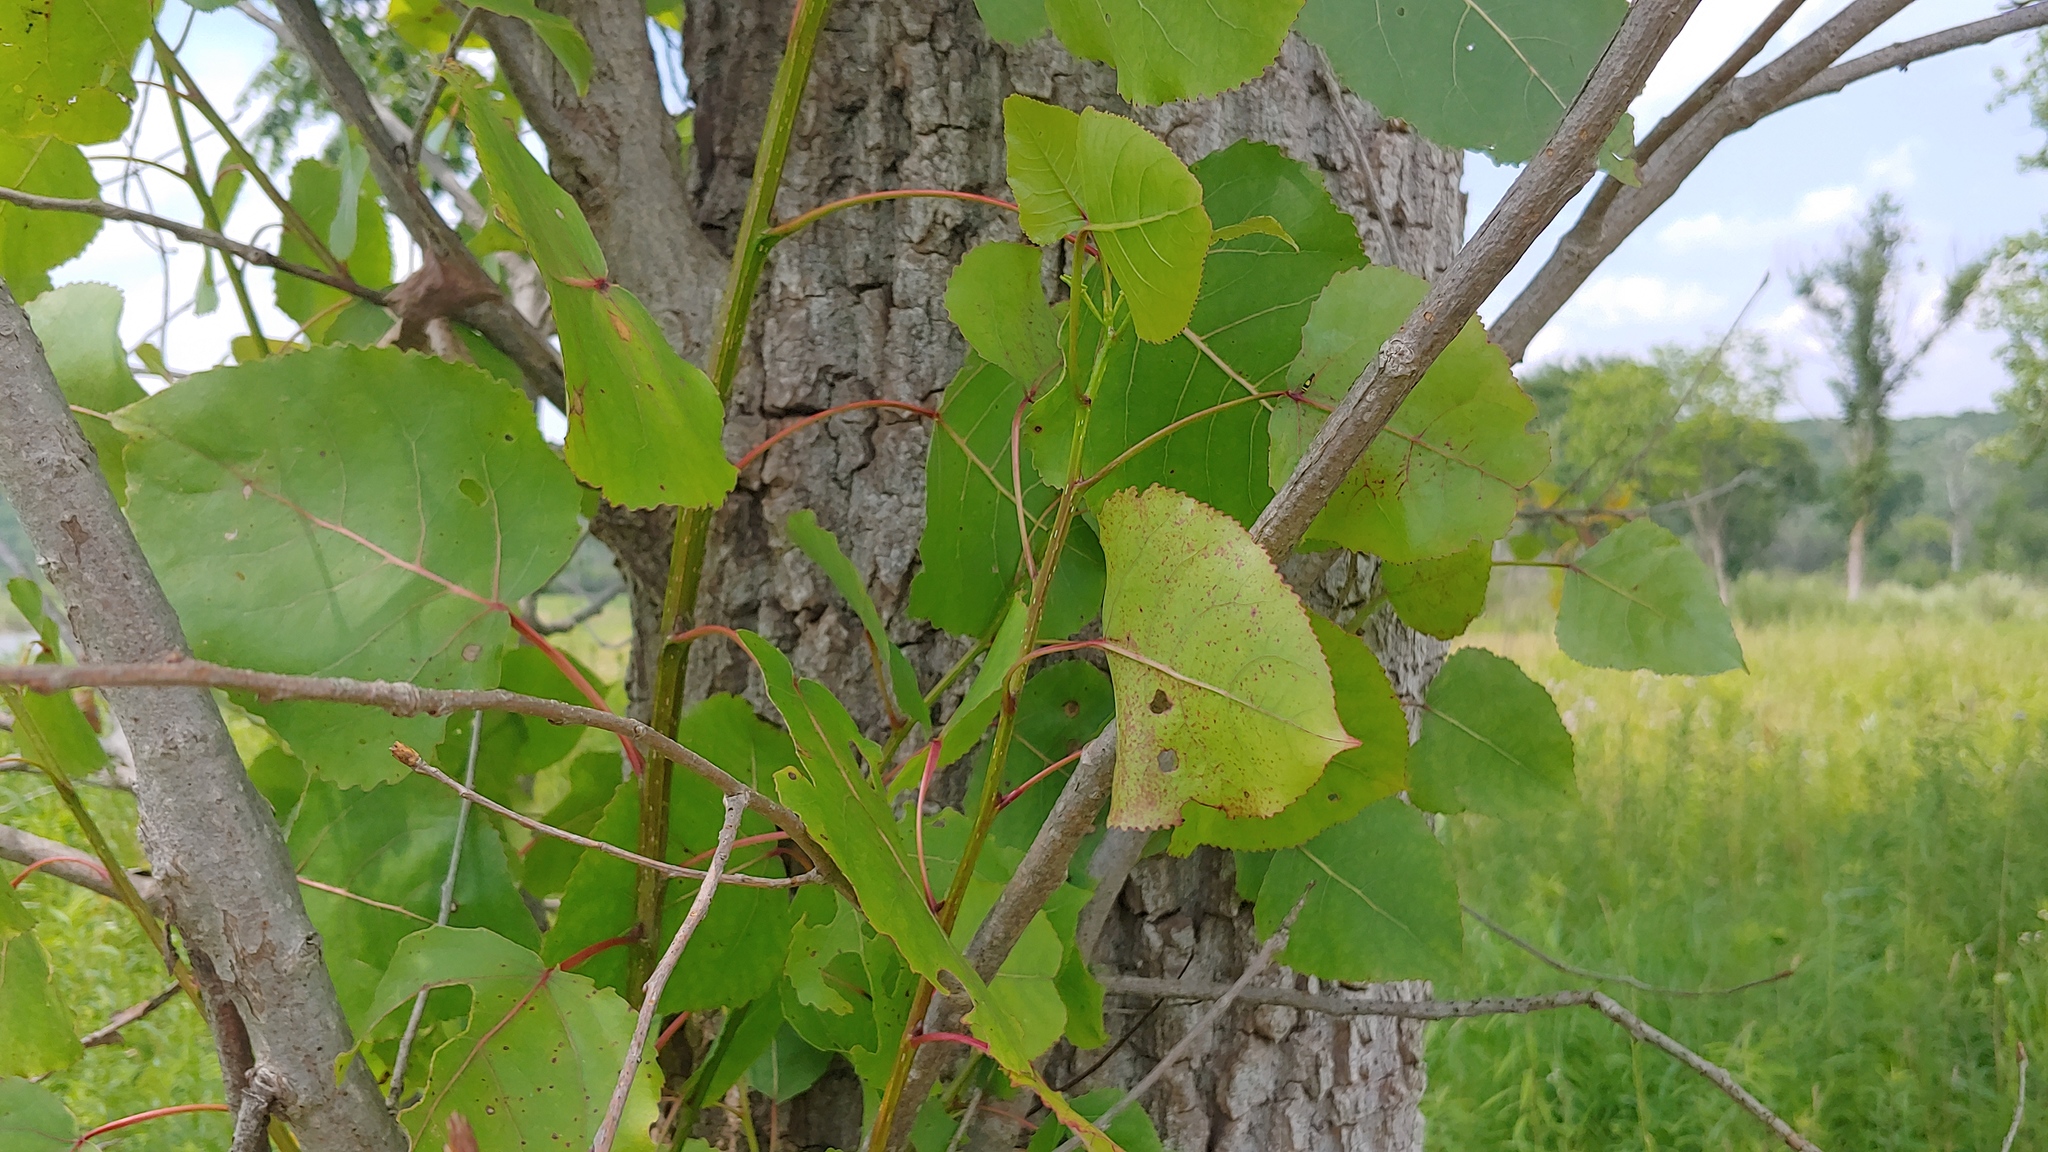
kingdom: Plantae
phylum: Tracheophyta
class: Magnoliopsida
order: Malpighiales
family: Salicaceae
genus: Populus
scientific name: Populus deltoides
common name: Eastern cottonwood
